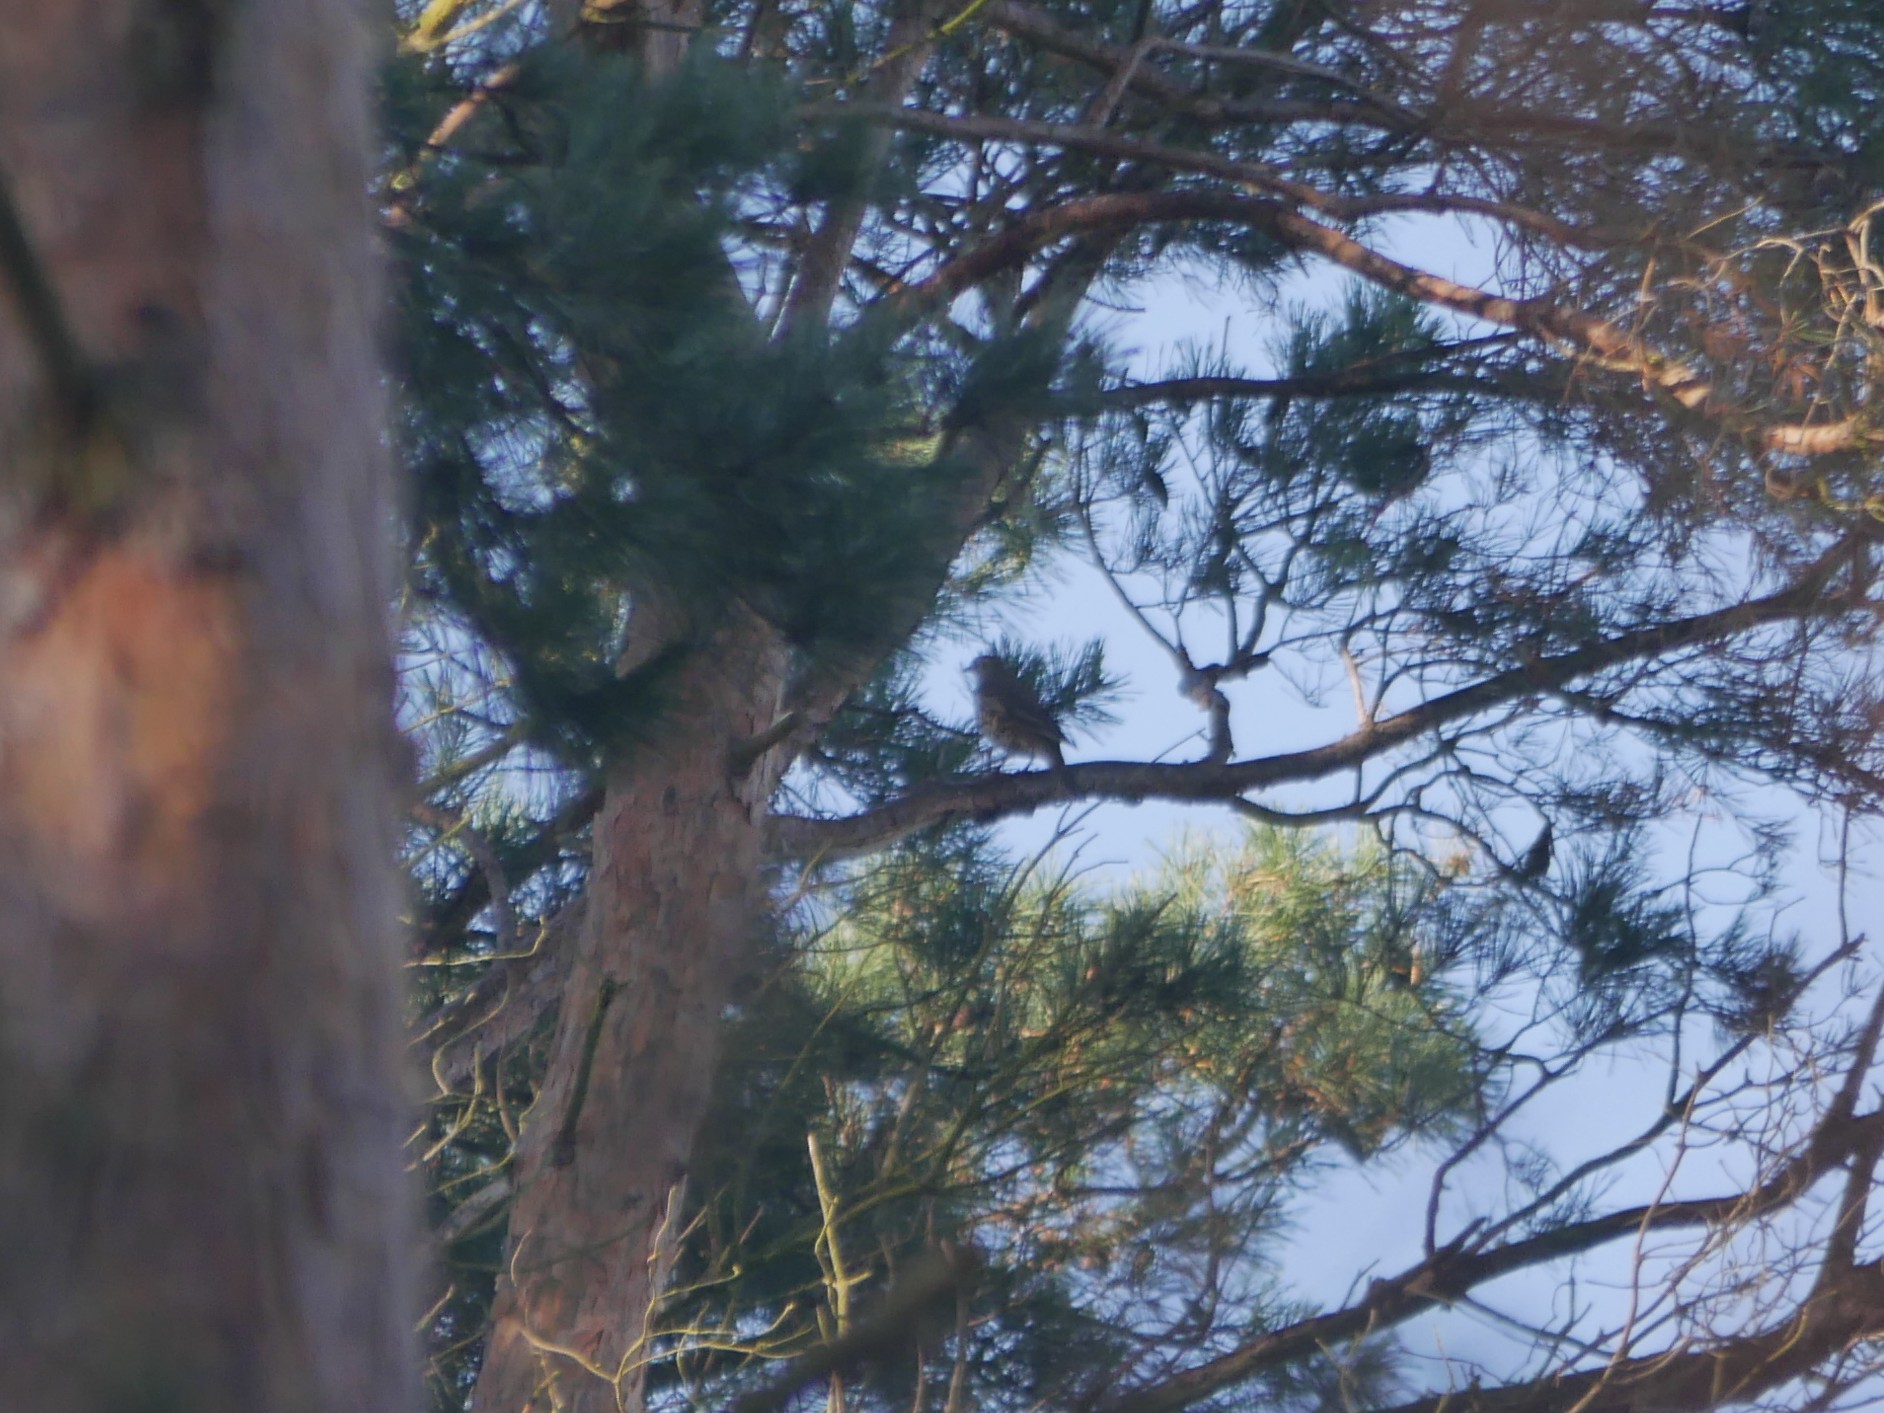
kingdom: Animalia
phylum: Chordata
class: Aves
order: Passeriformes
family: Turdidae
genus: Turdus
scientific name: Turdus viscivorus
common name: Mistle thrush
